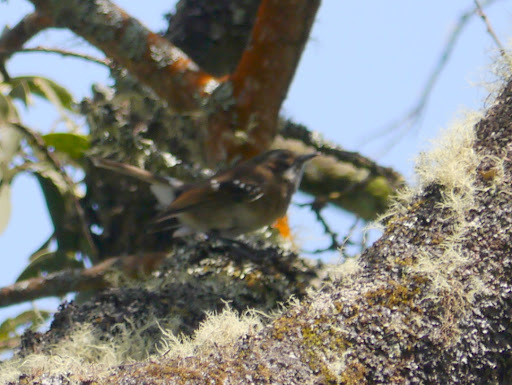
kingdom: Animalia
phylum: Chordata
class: Aves
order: Passeriformes
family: Monarchidae
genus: Chasiempis
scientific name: Chasiempis sandwichensis
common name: Hawaii elepaio
